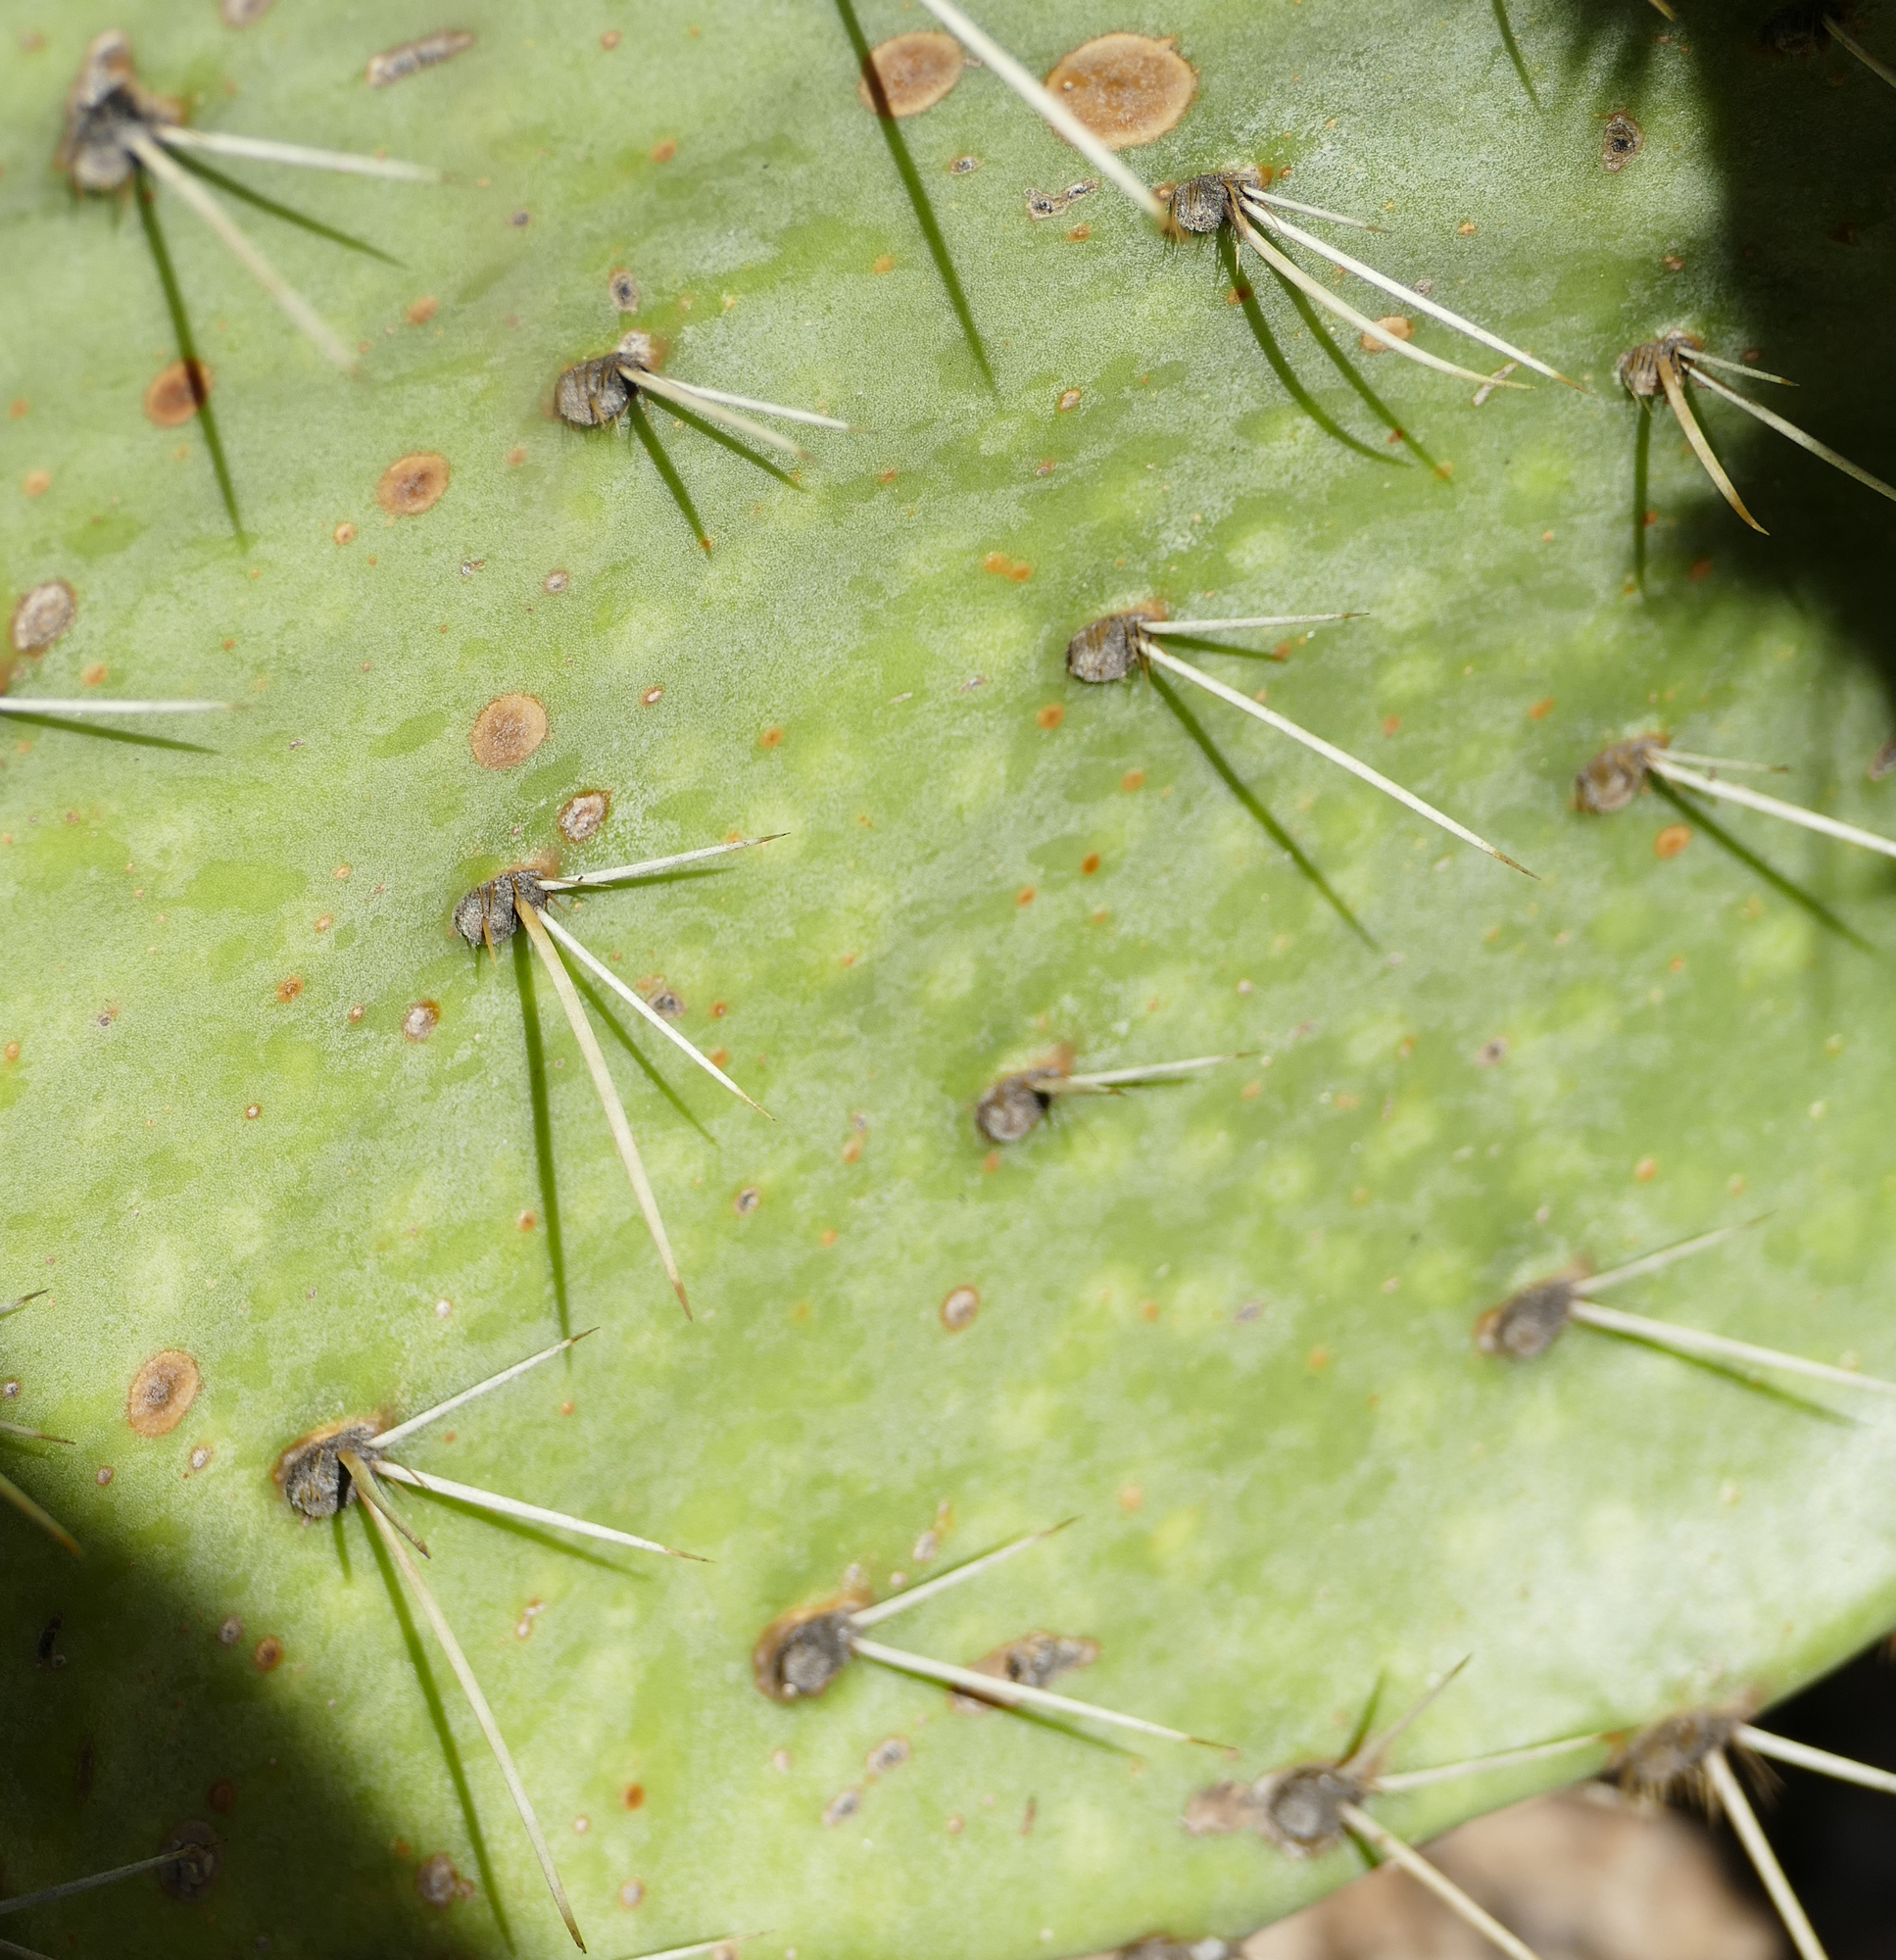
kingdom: Plantae
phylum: Tracheophyta
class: Magnoliopsida
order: Caryophyllales
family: Cactaceae
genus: Opuntia
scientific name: Opuntia chlorotica
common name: Dollar-joint prickly-pear
